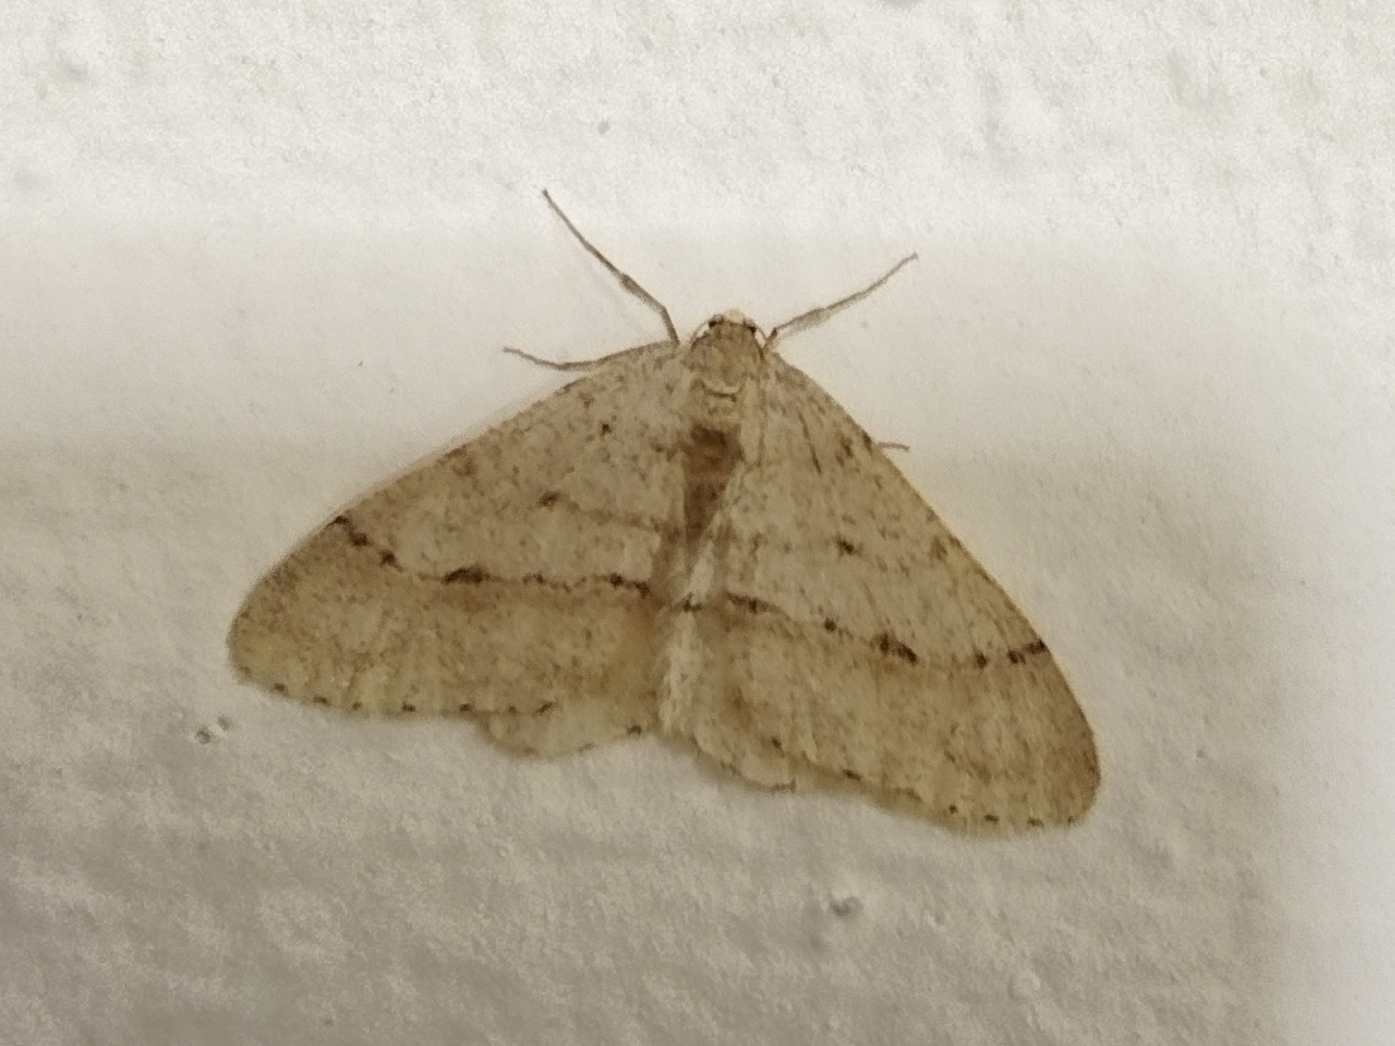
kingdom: Animalia
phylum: Arthropoda
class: Insecta
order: Lepidoptera
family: Geometridae
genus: Larerannis
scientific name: Larerannis orthogrammaria
